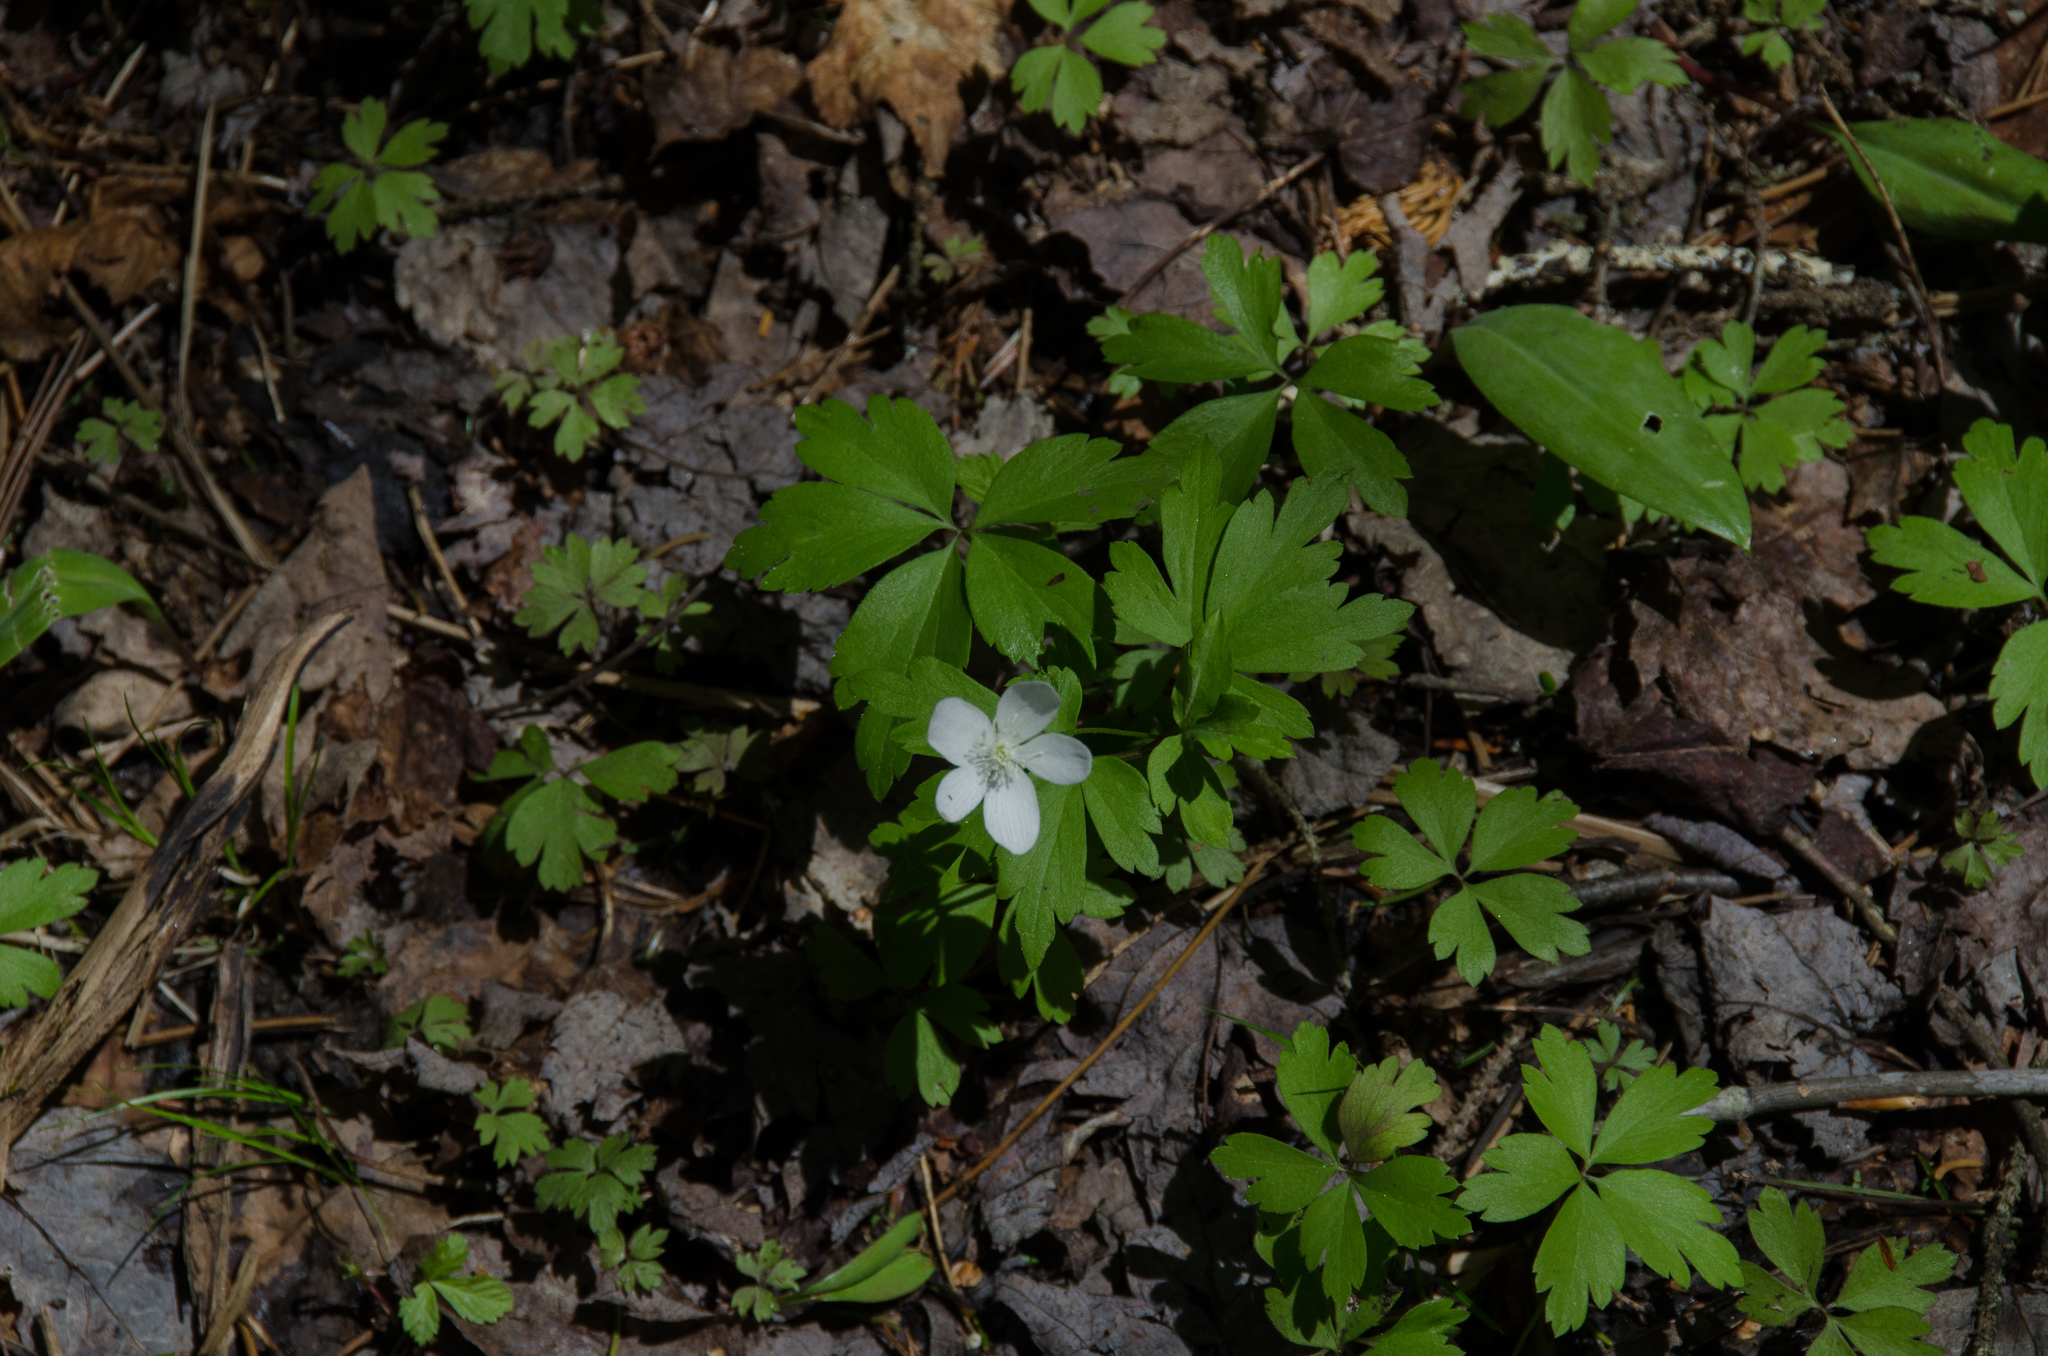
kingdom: Plantae
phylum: Tracheophyta
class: Magnoliopsida
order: Ranunculales
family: Ranunculaceae
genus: Anemone
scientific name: Anemone quinquefolia
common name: Wood anemone
